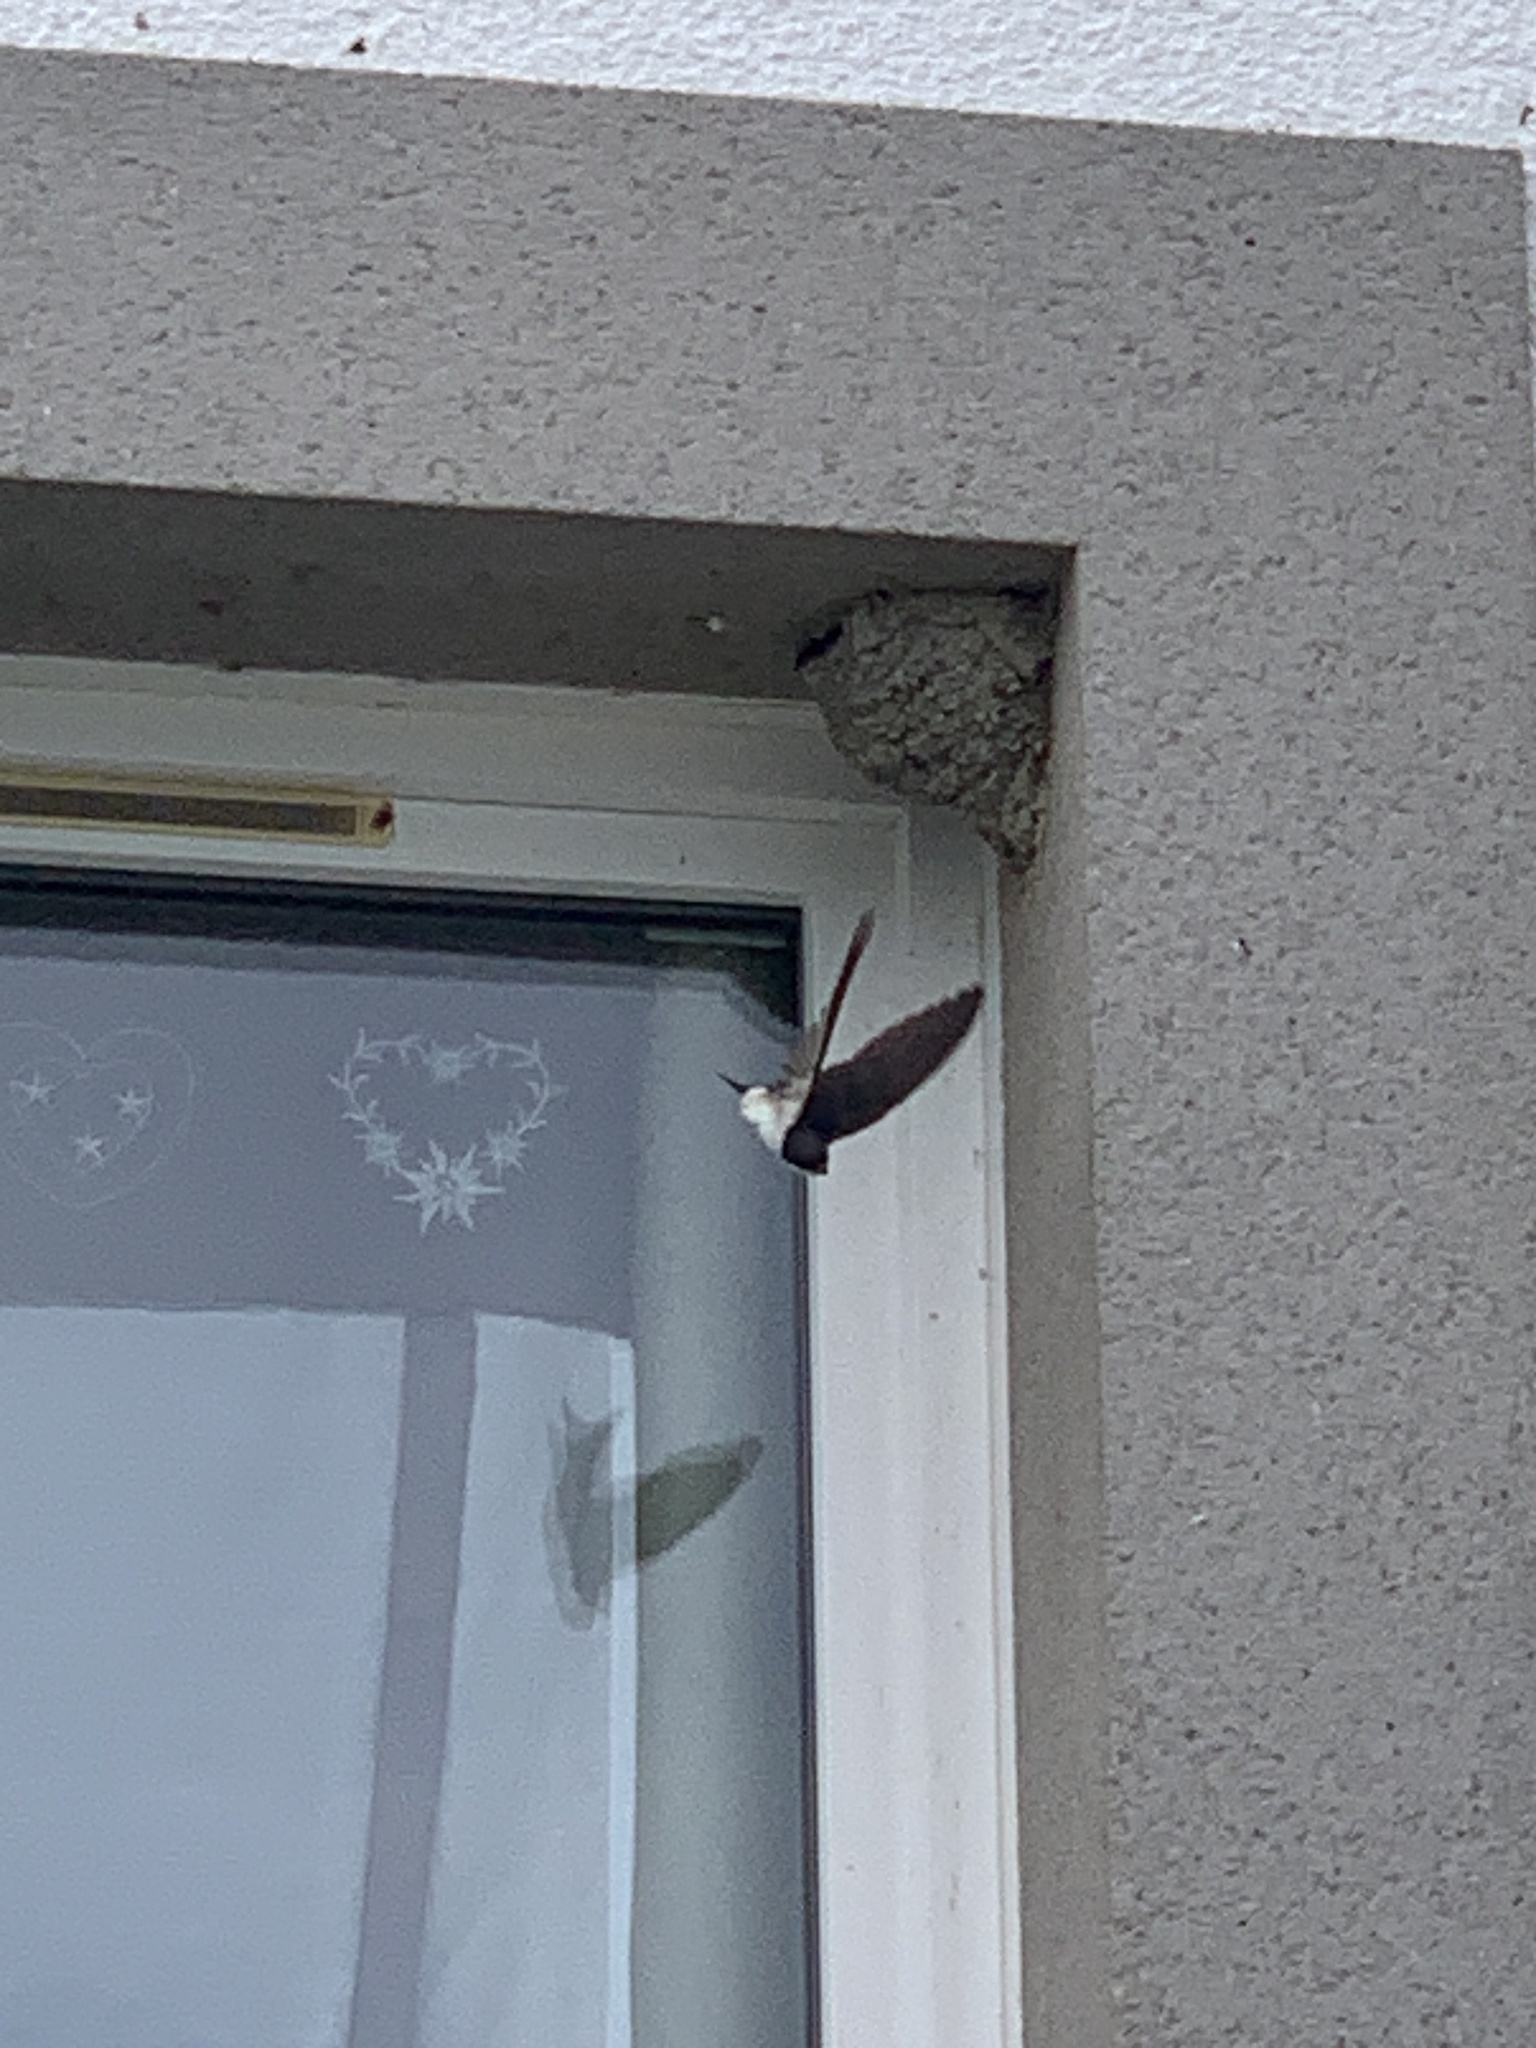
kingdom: Animalia
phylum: Chordata
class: Aves
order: Passeriformes
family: Hirundinidae
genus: Delichon
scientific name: Delichon urbicum
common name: Common house martin
